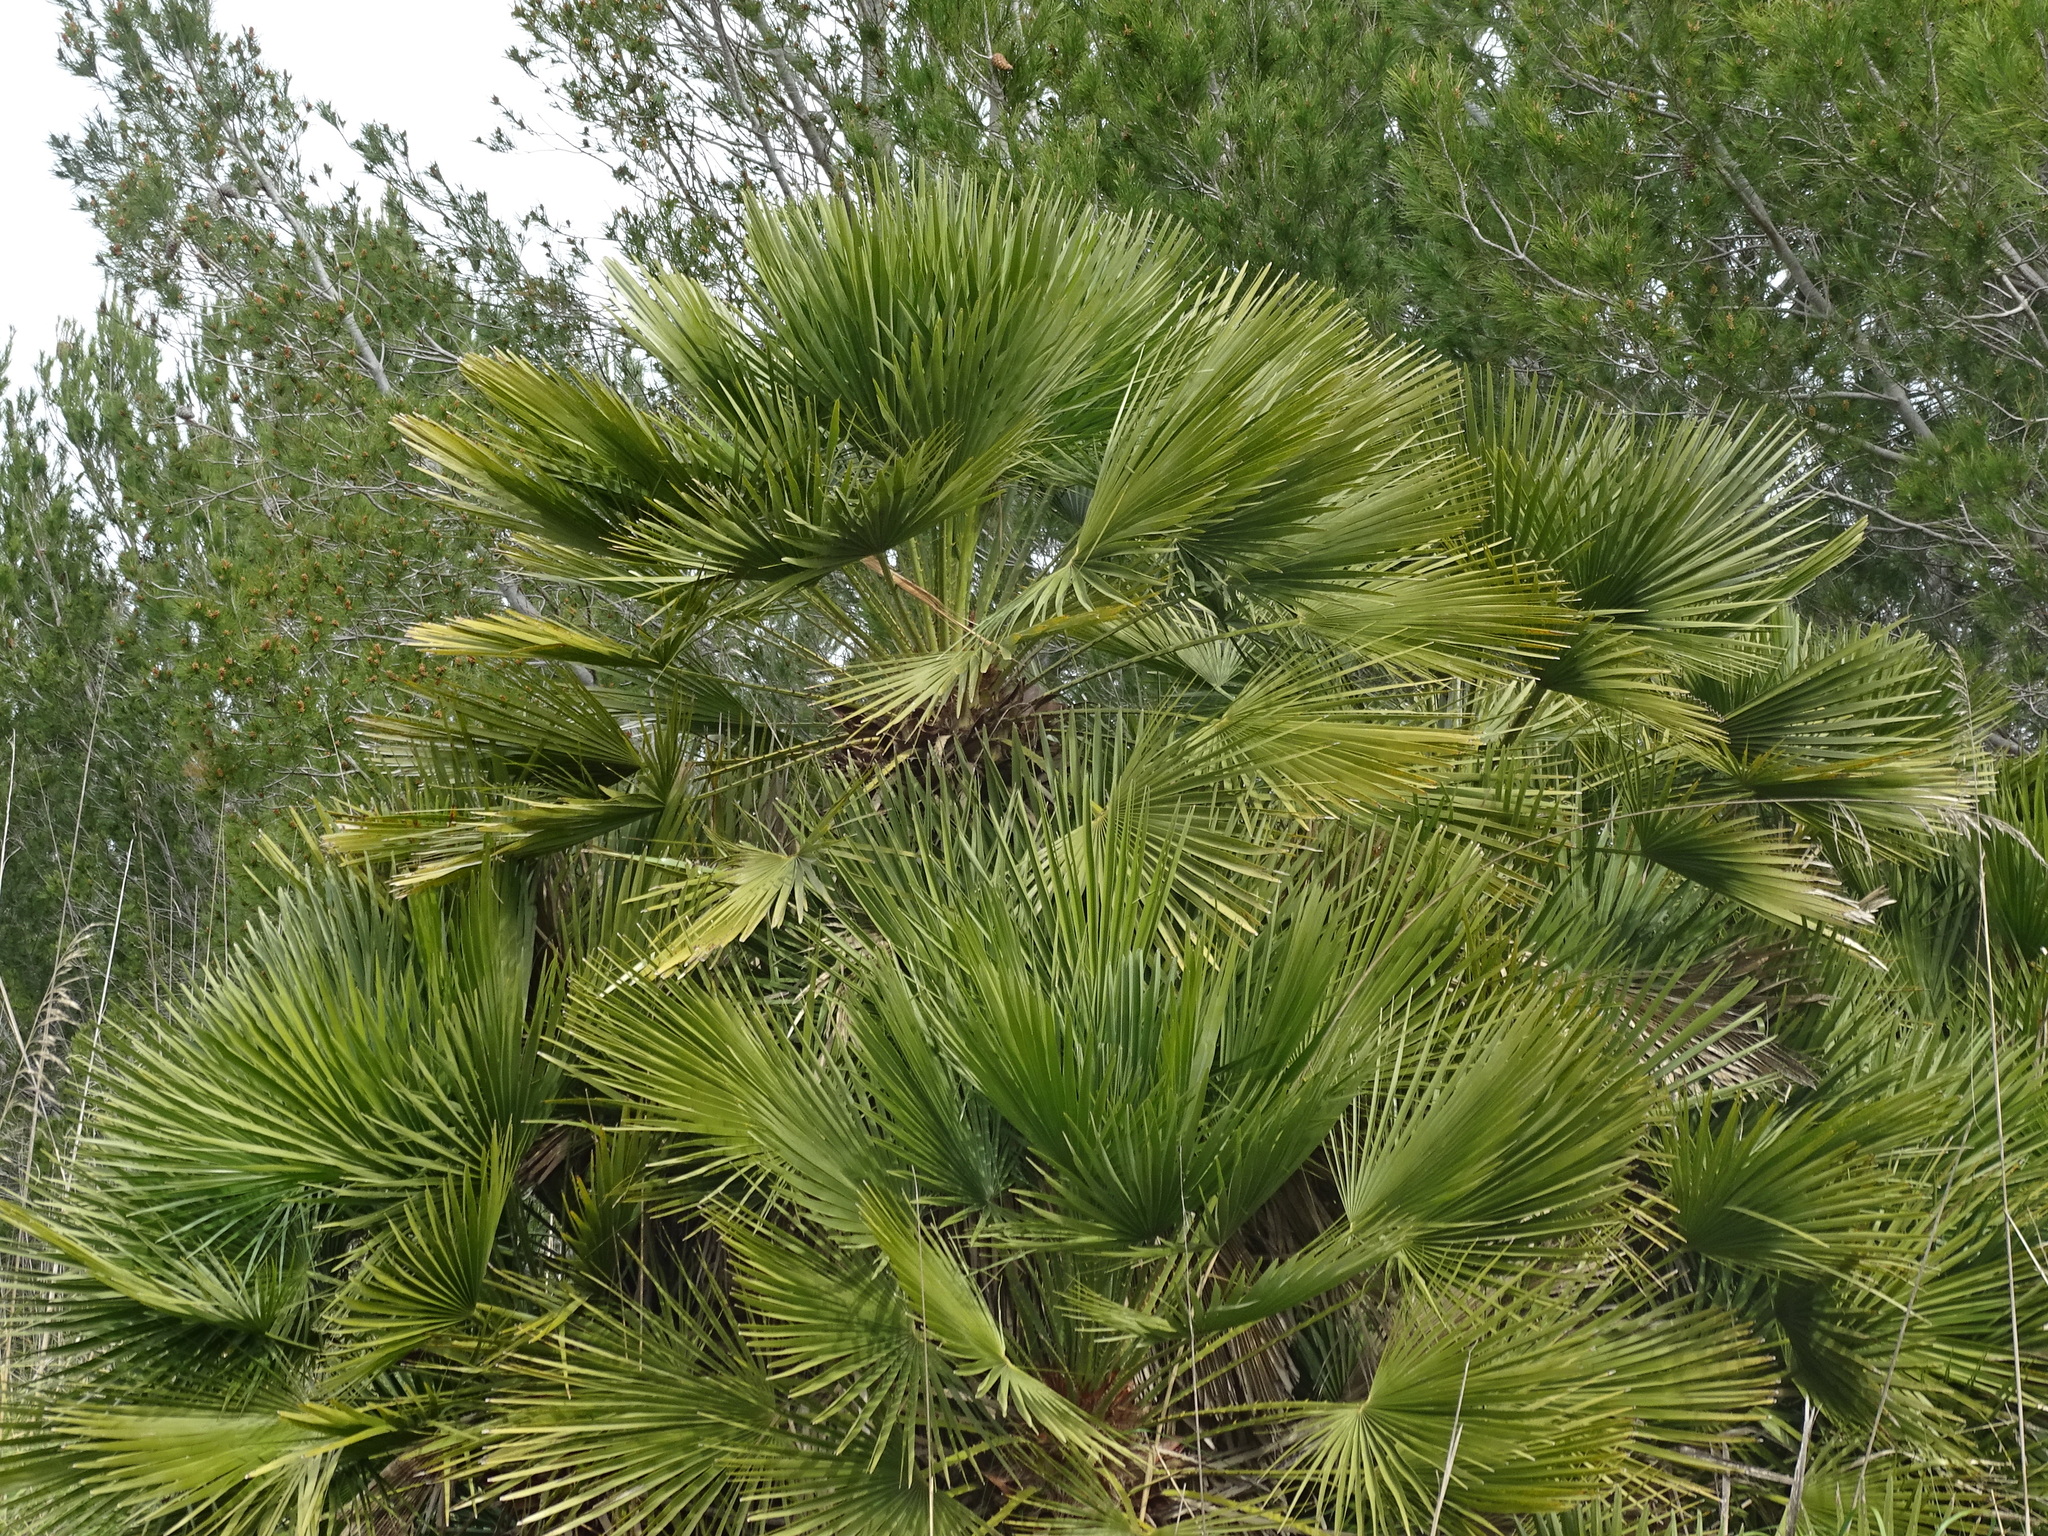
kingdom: Plantae
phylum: Tracheophyta
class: Liliopsida
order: Arecales
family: Arecaceae
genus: Chamaerops
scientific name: Chamaerops humilis
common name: Dwarf fan palm
